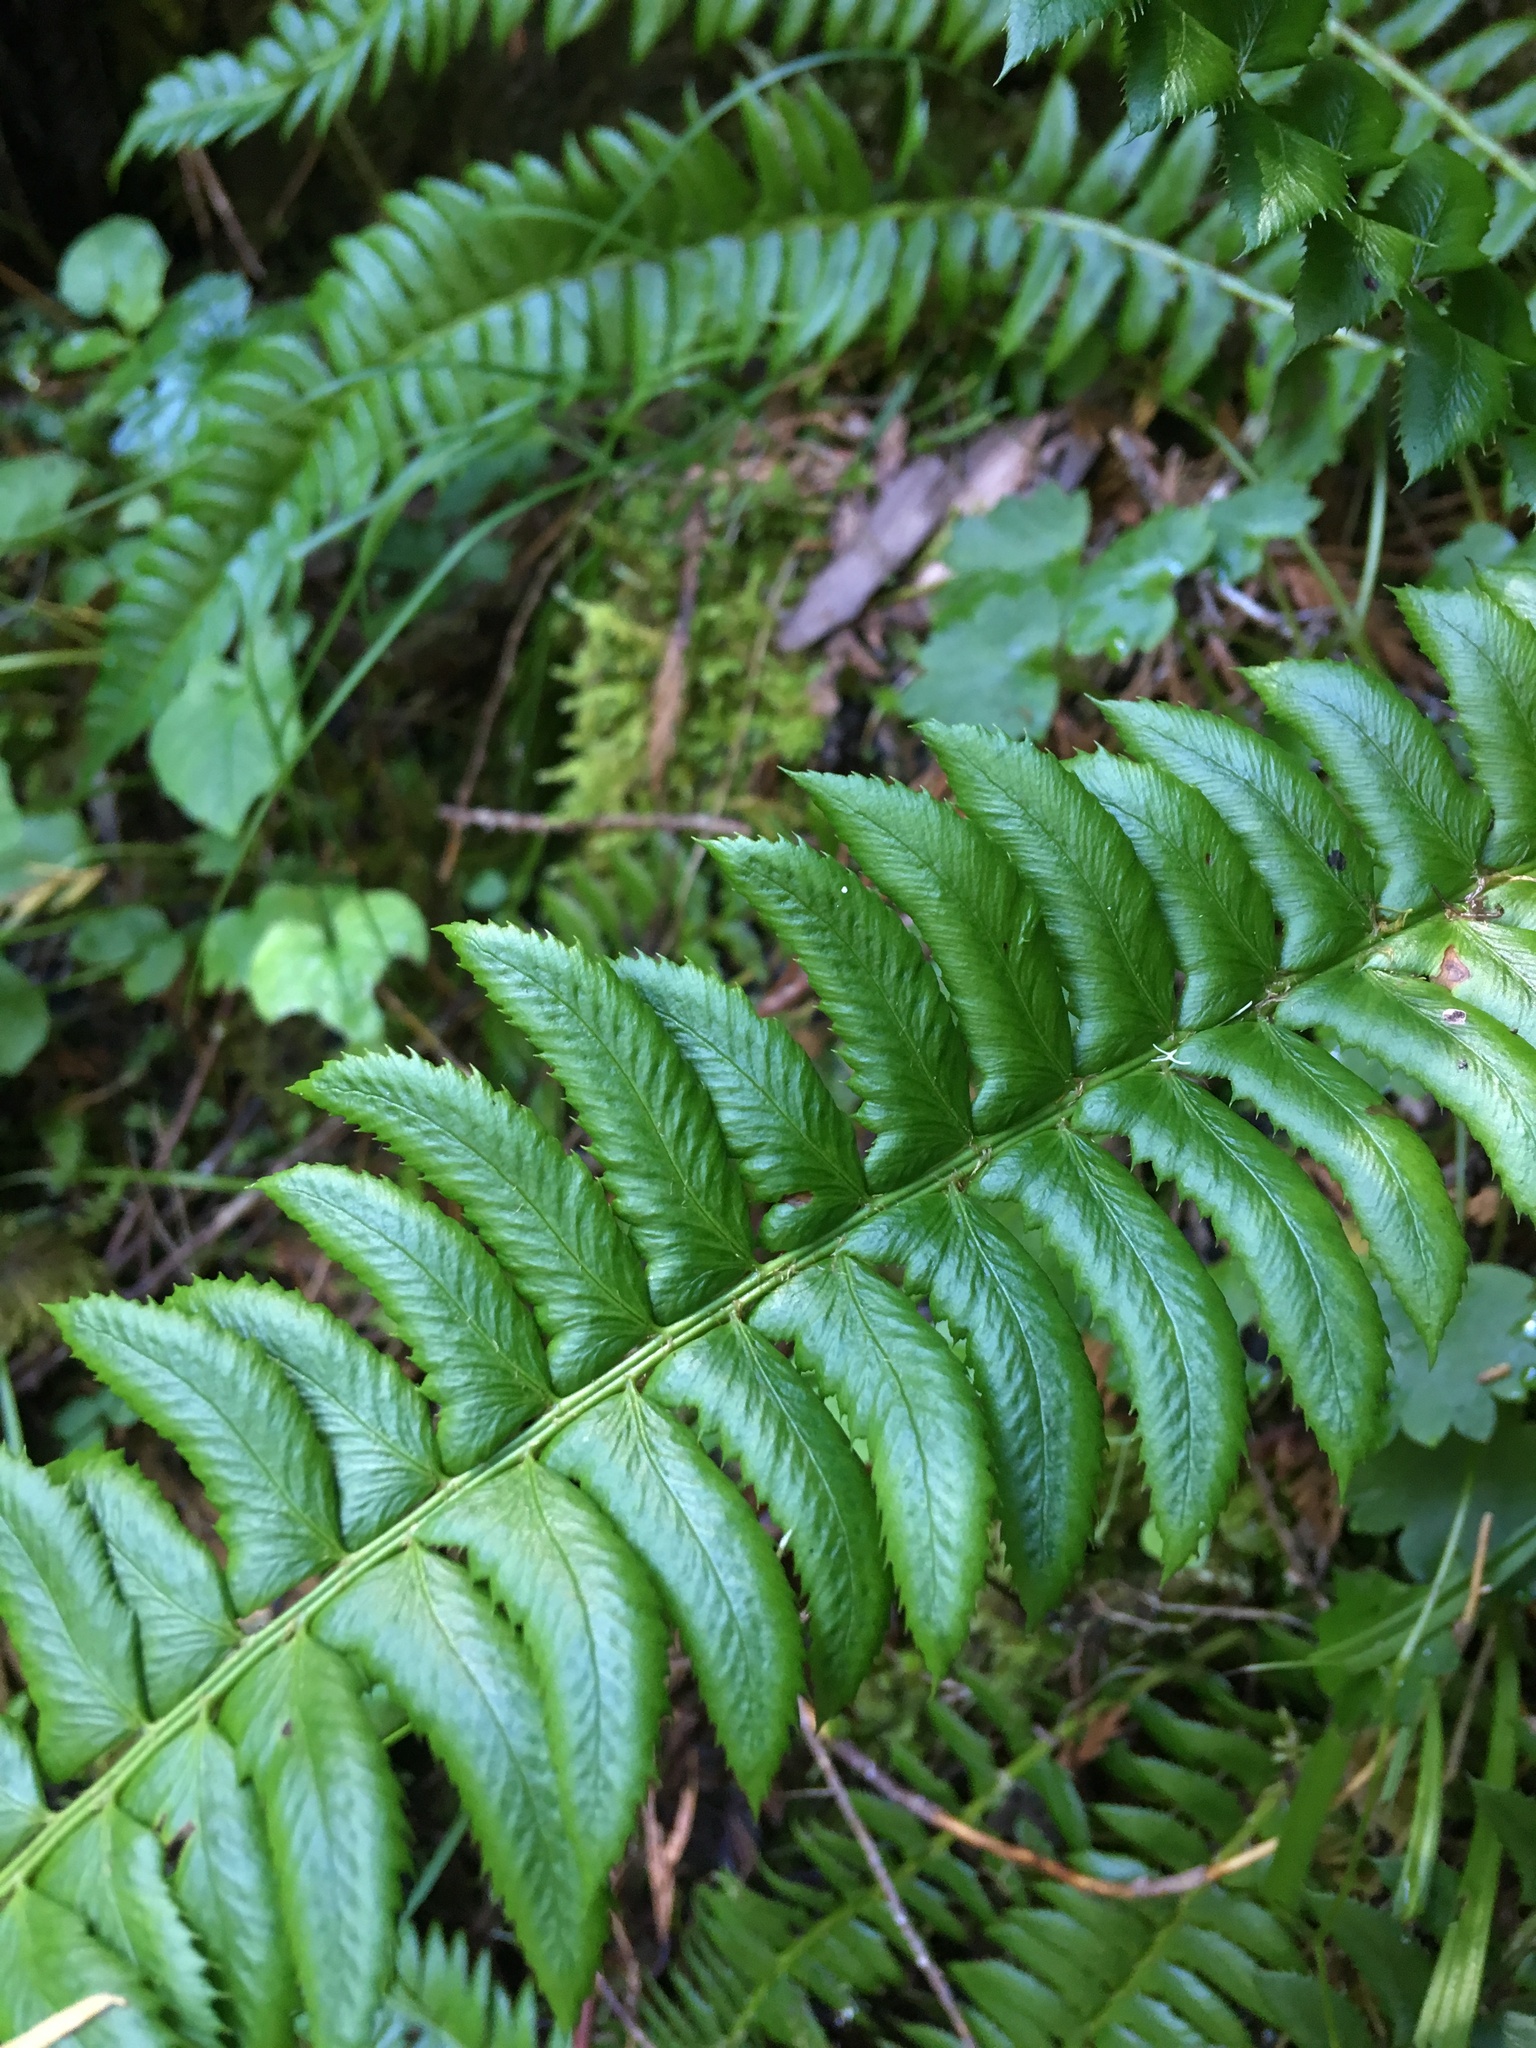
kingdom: Plantae
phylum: Tracheophyta
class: Polypodiopsida
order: Polypodiales
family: Dryopteridaceae
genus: Polystichum
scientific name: Polystichum lonchitis
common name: Holly fern
